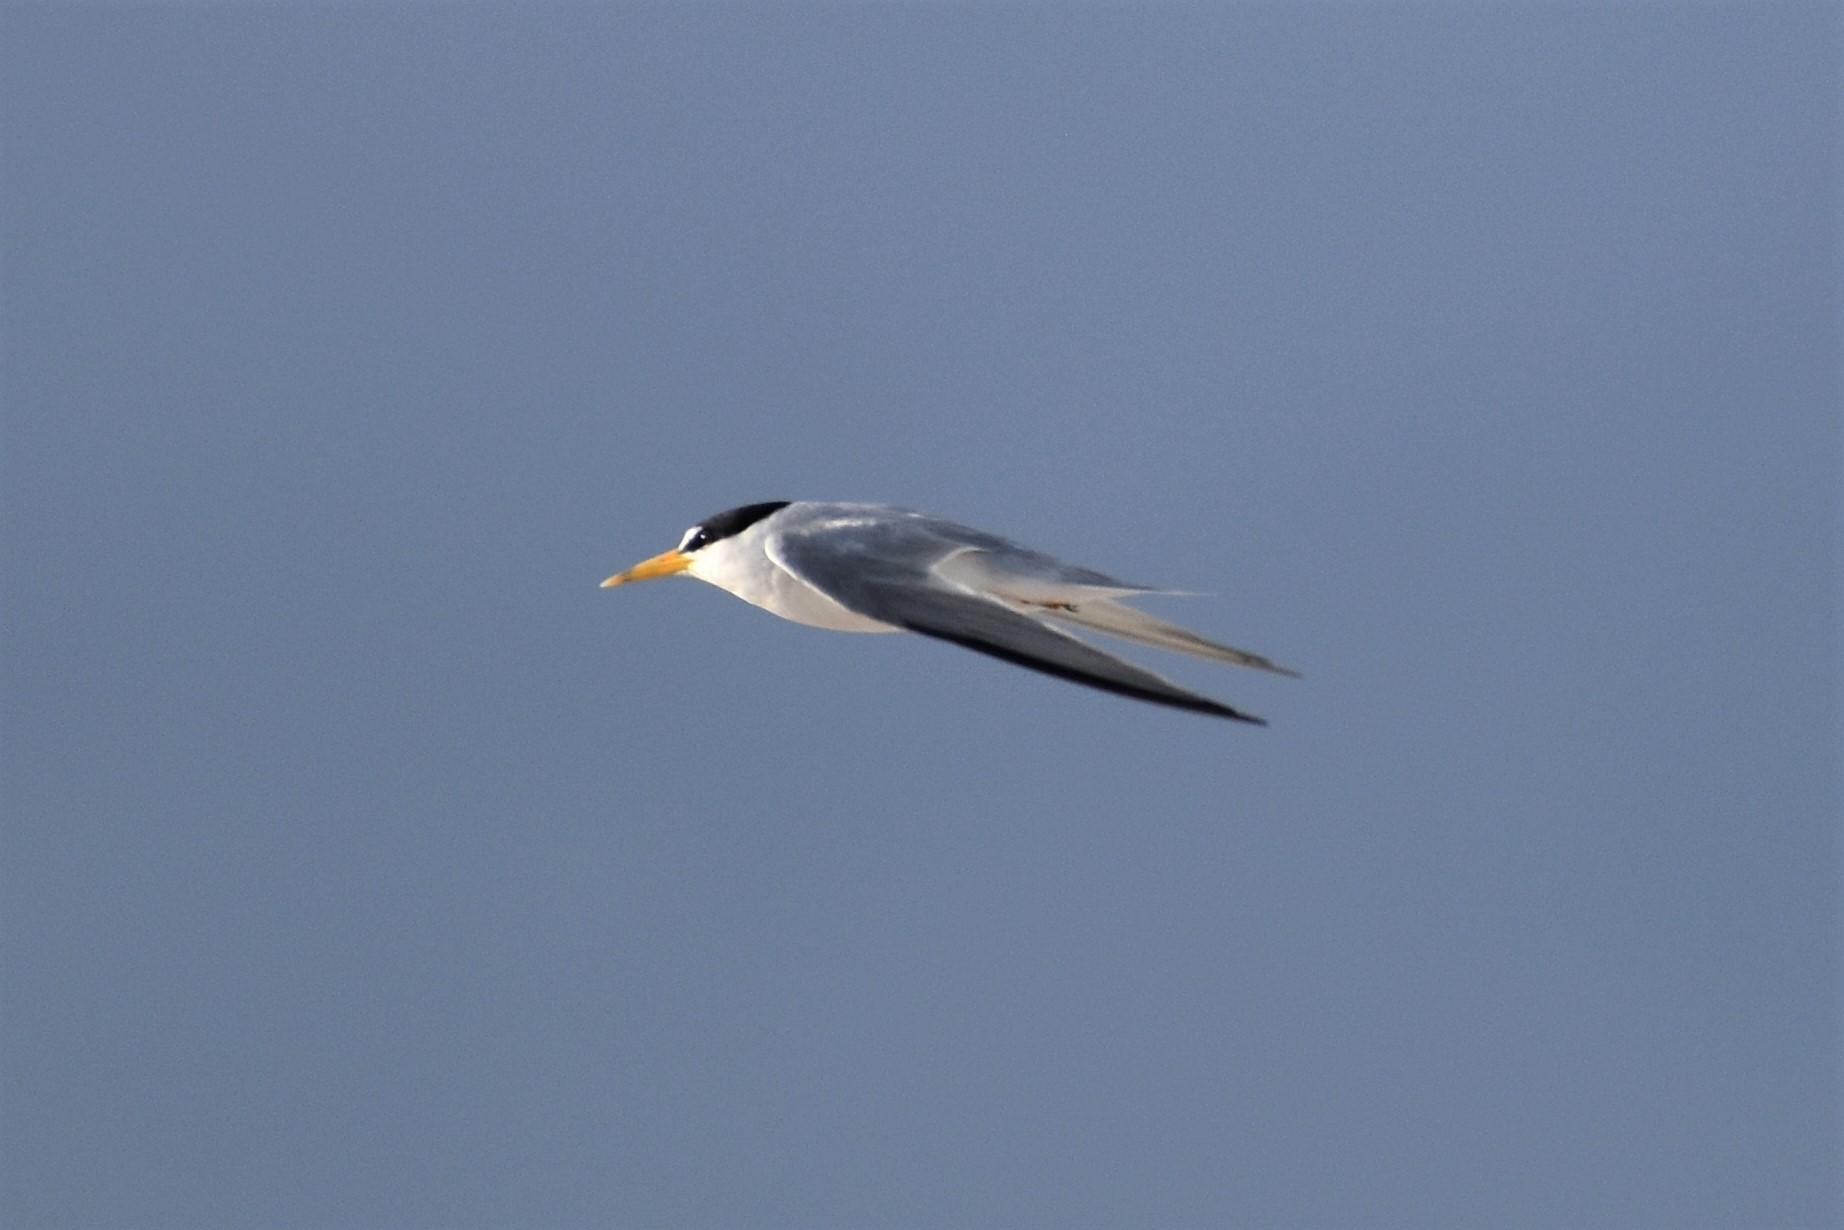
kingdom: Animalia
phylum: Chordata
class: Aves
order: Charadriiformes
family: Laridae
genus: Sternula
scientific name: Sternula antillarum
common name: Least tern
